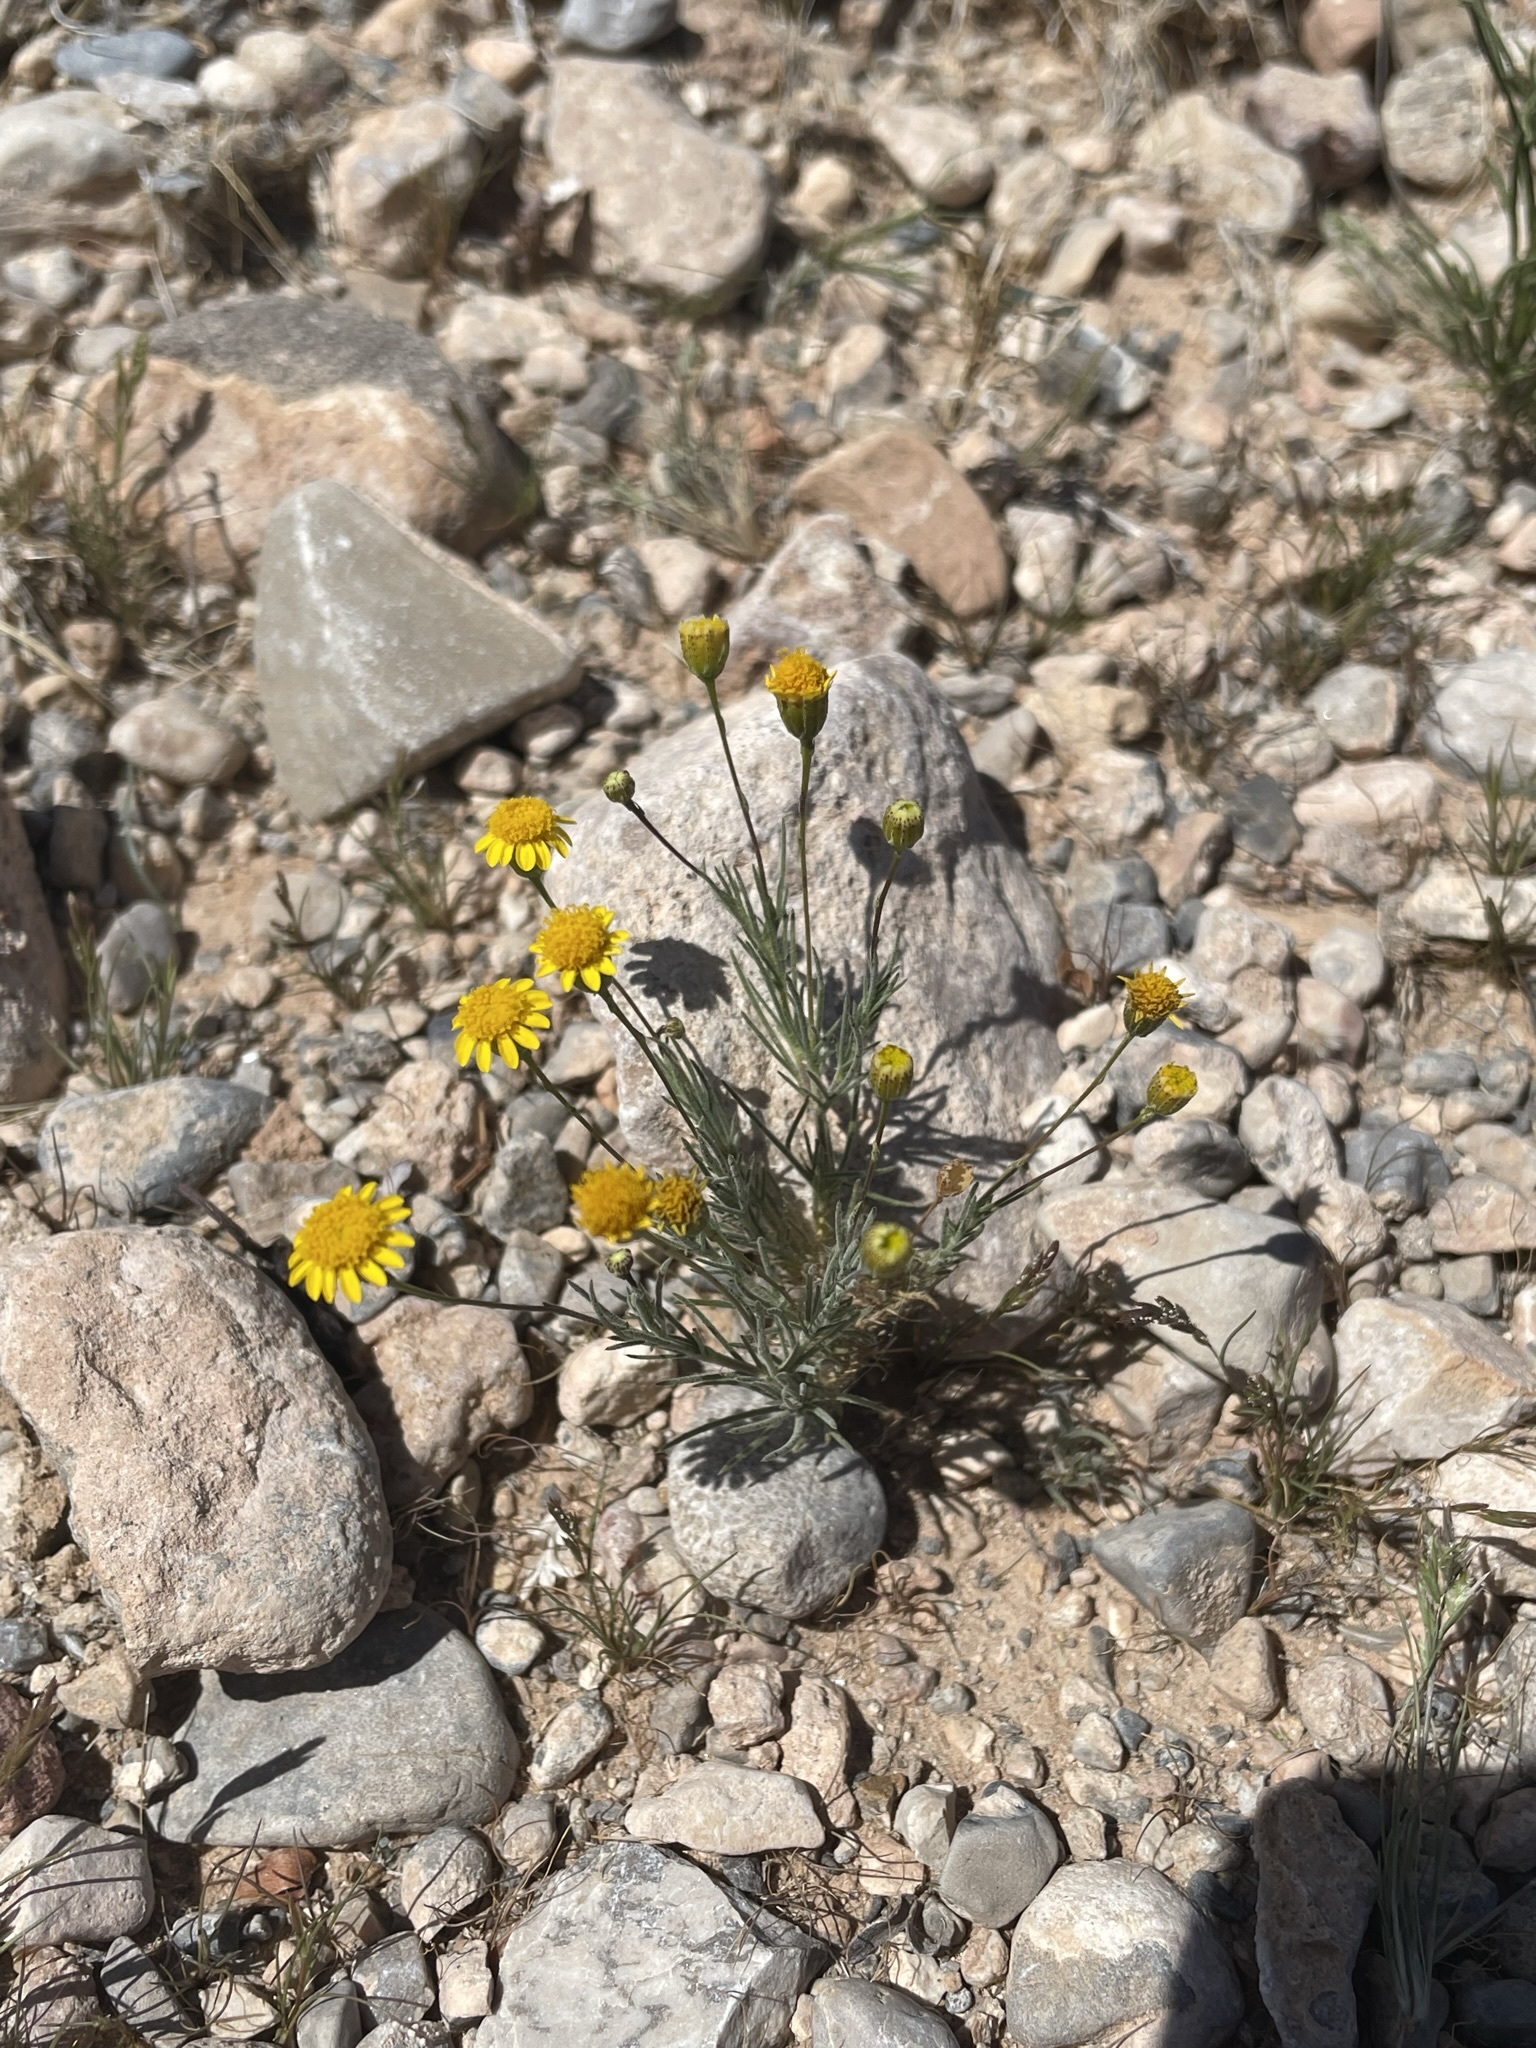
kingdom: Plantae
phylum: Tracheophyta
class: Magnoliopsida
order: Asterales
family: Asteraceae
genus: Thymophylla
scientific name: Thymophylla pentachaeta
